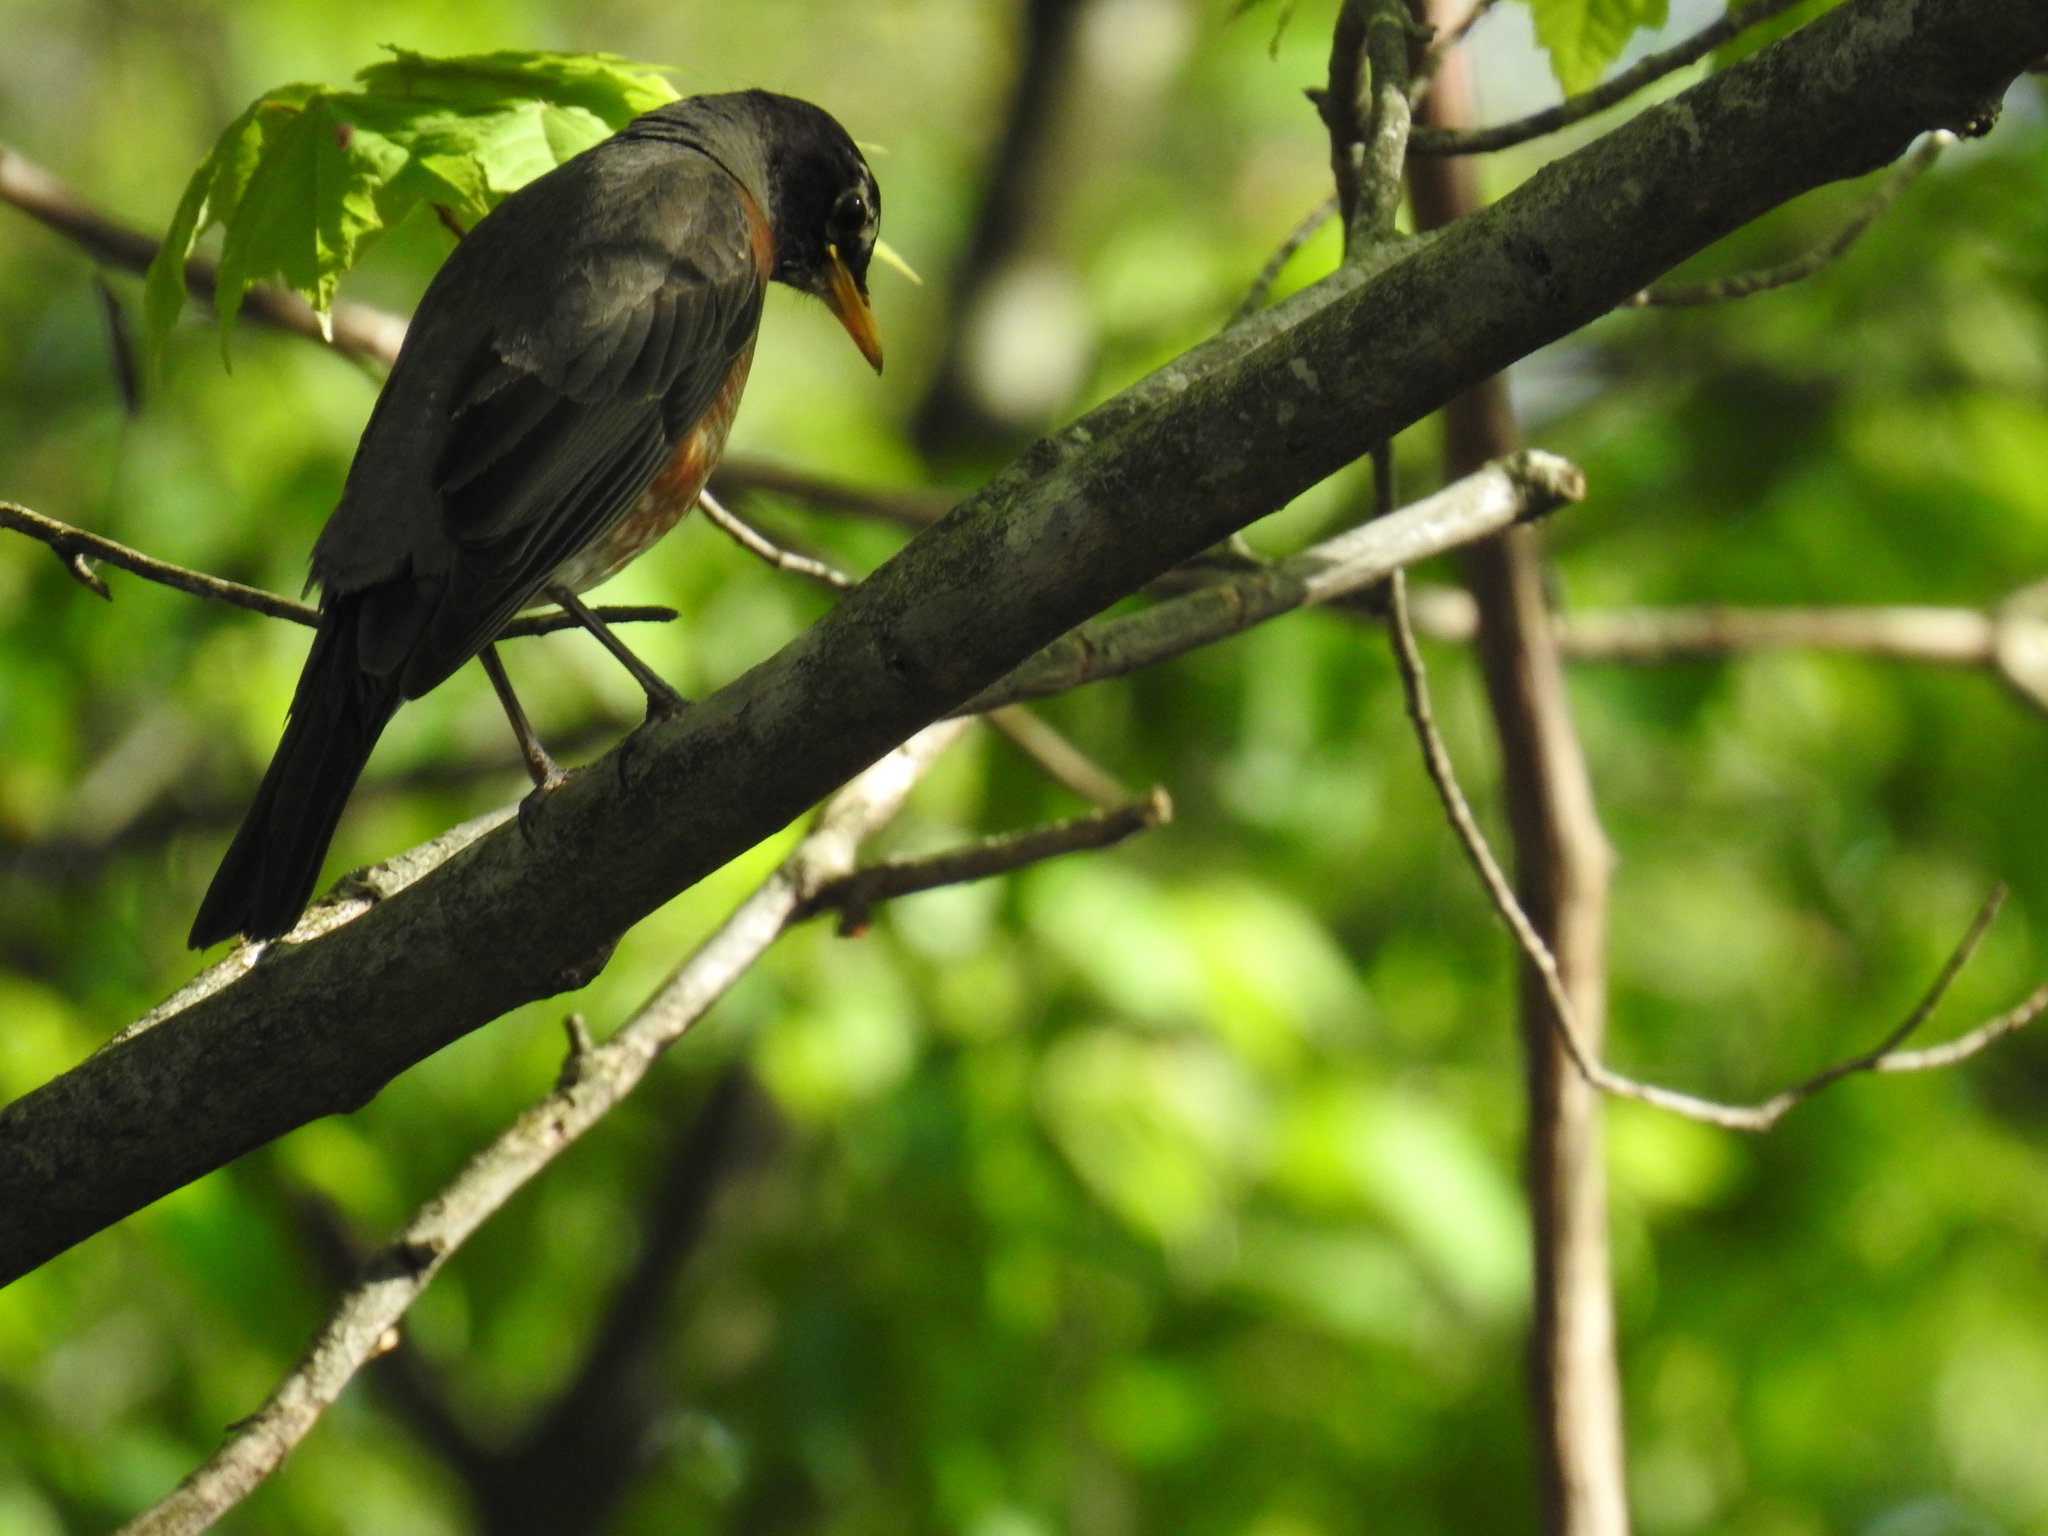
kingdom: Animalia
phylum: Chordata
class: Aves
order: Passeriformes
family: Turdidae
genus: Turdus
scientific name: Turdus migratorius
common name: American robin
